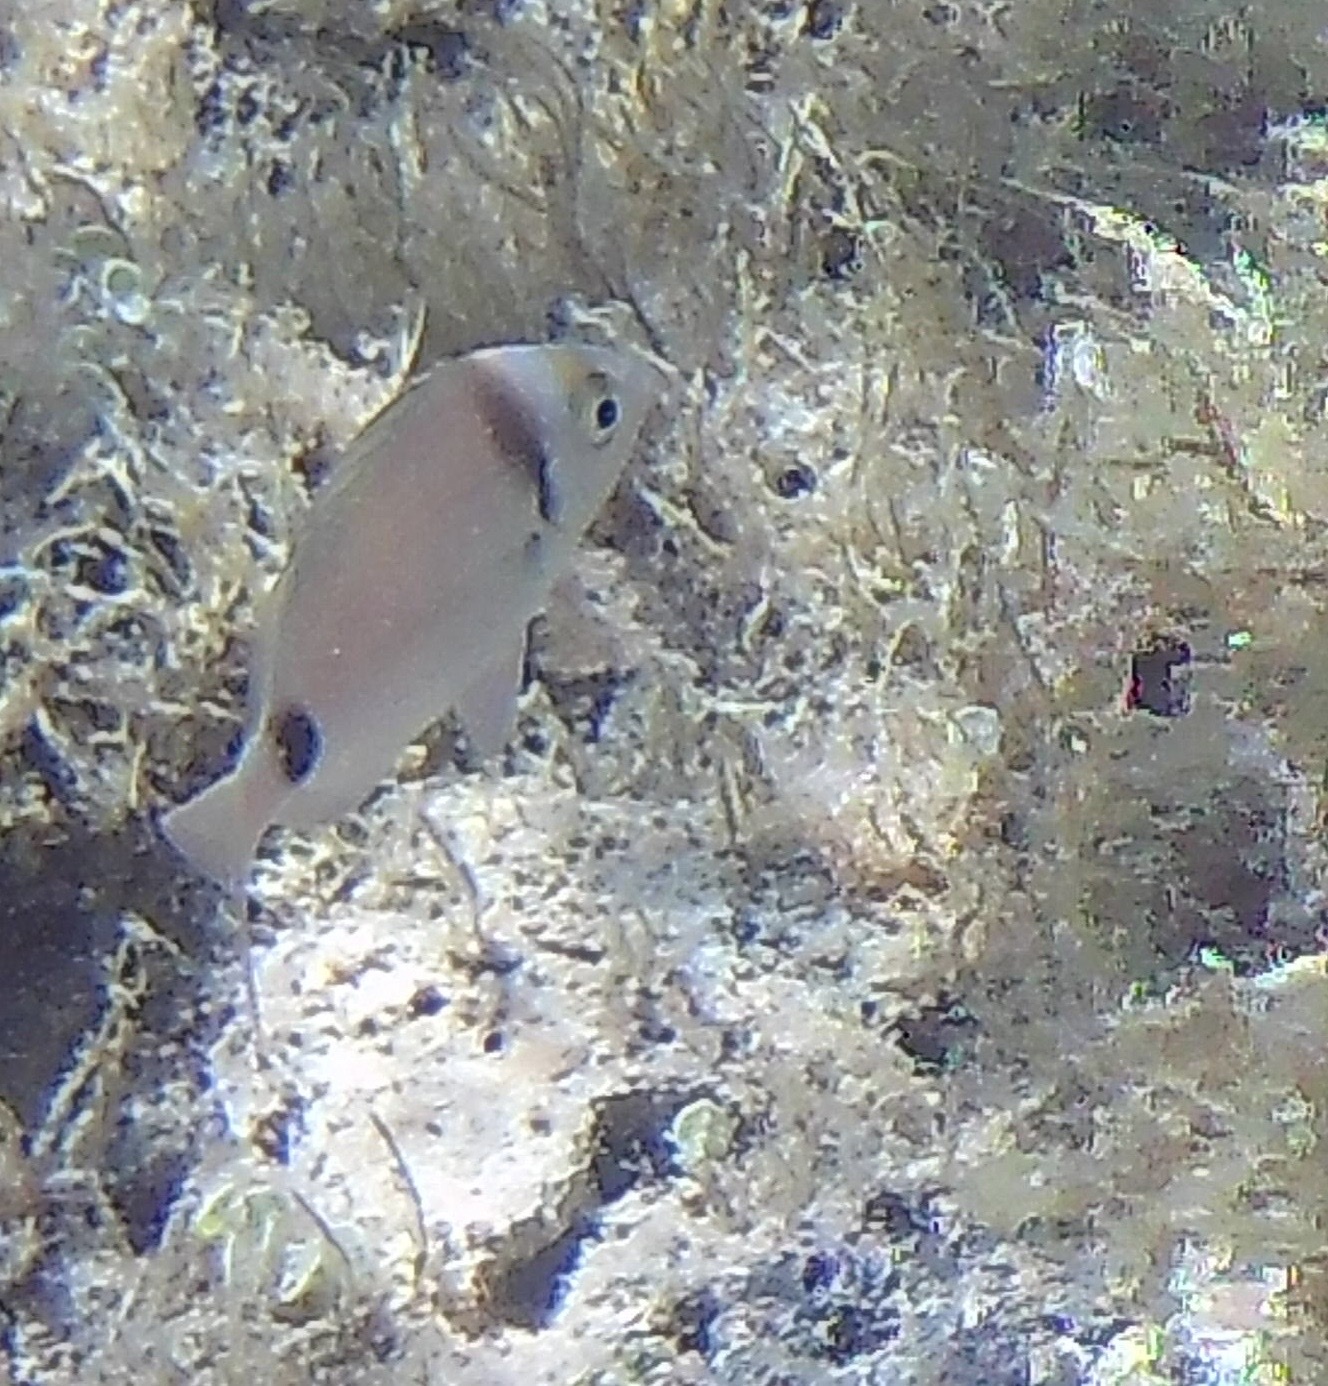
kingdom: Animalia
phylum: Chordata
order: Perciformes
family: Sparidae
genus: Diplodus
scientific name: Diplodus vulgaris
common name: Common two-banded seabream
